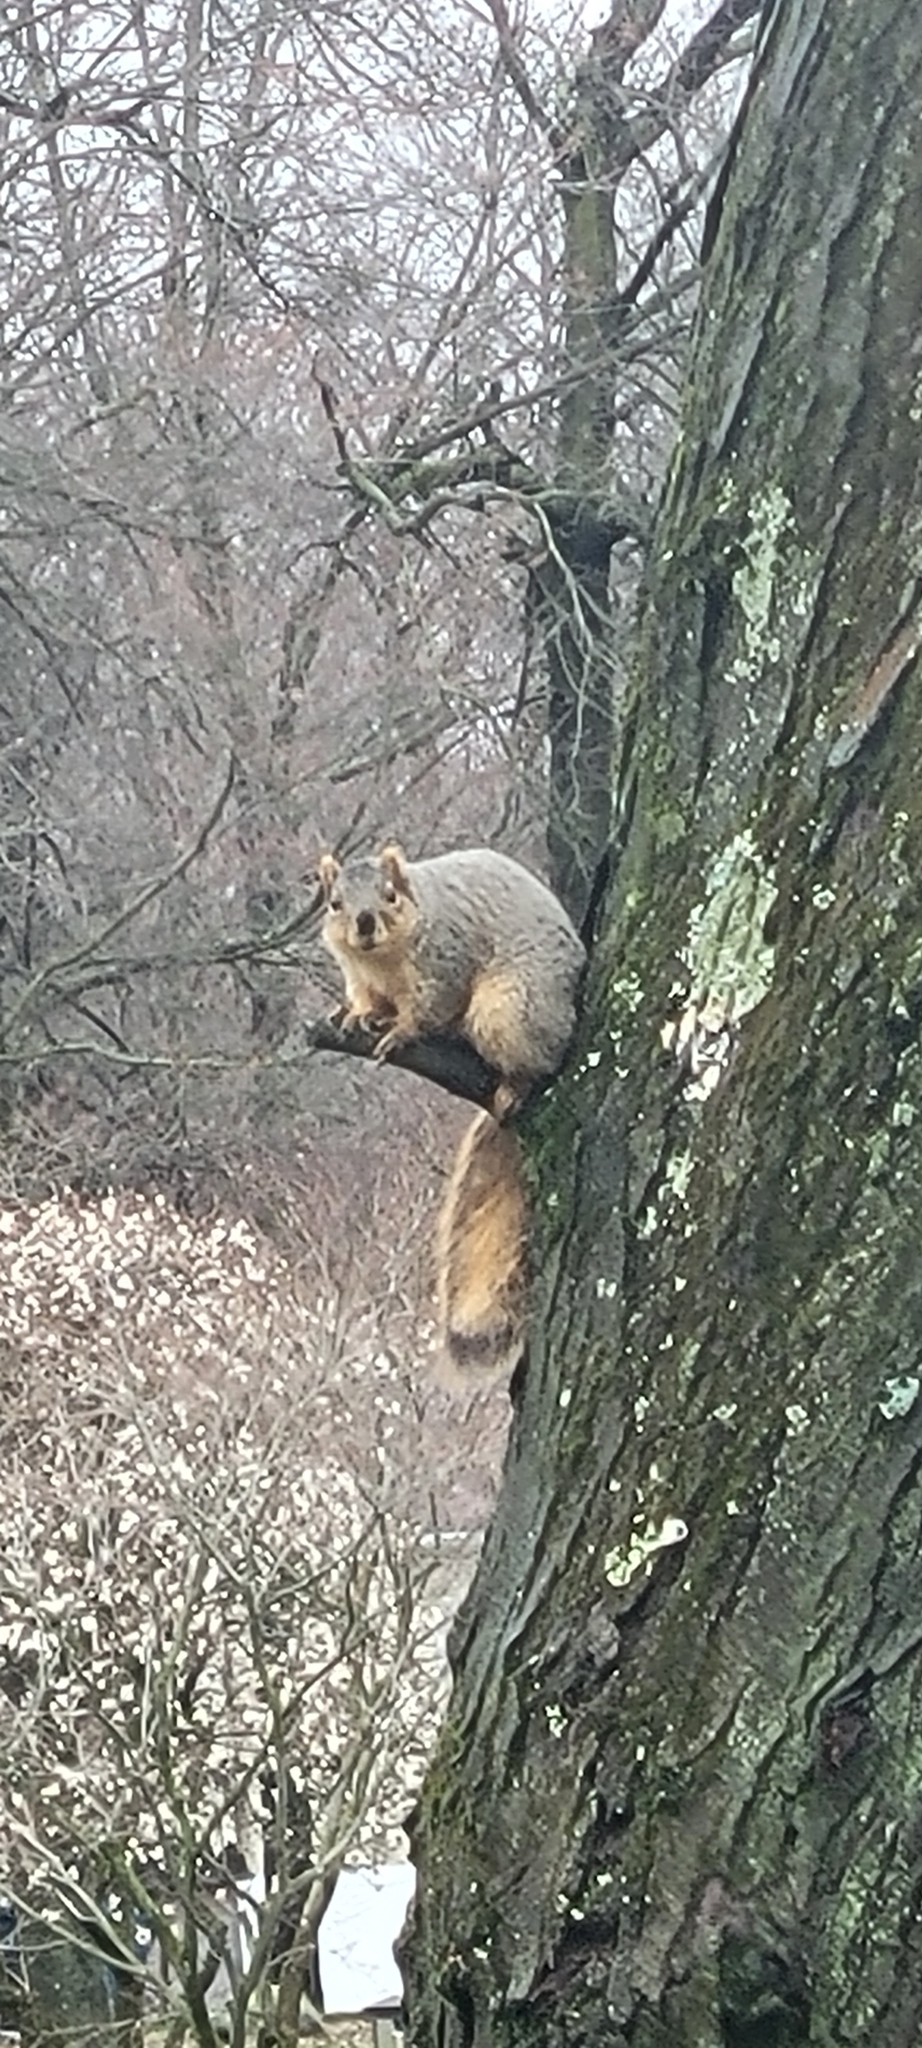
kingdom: Animalia
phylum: Chordata
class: Mammalia
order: Rodentia
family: Sciuridae
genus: Sciurus
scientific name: Sciurus niger
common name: Fox squirrel
